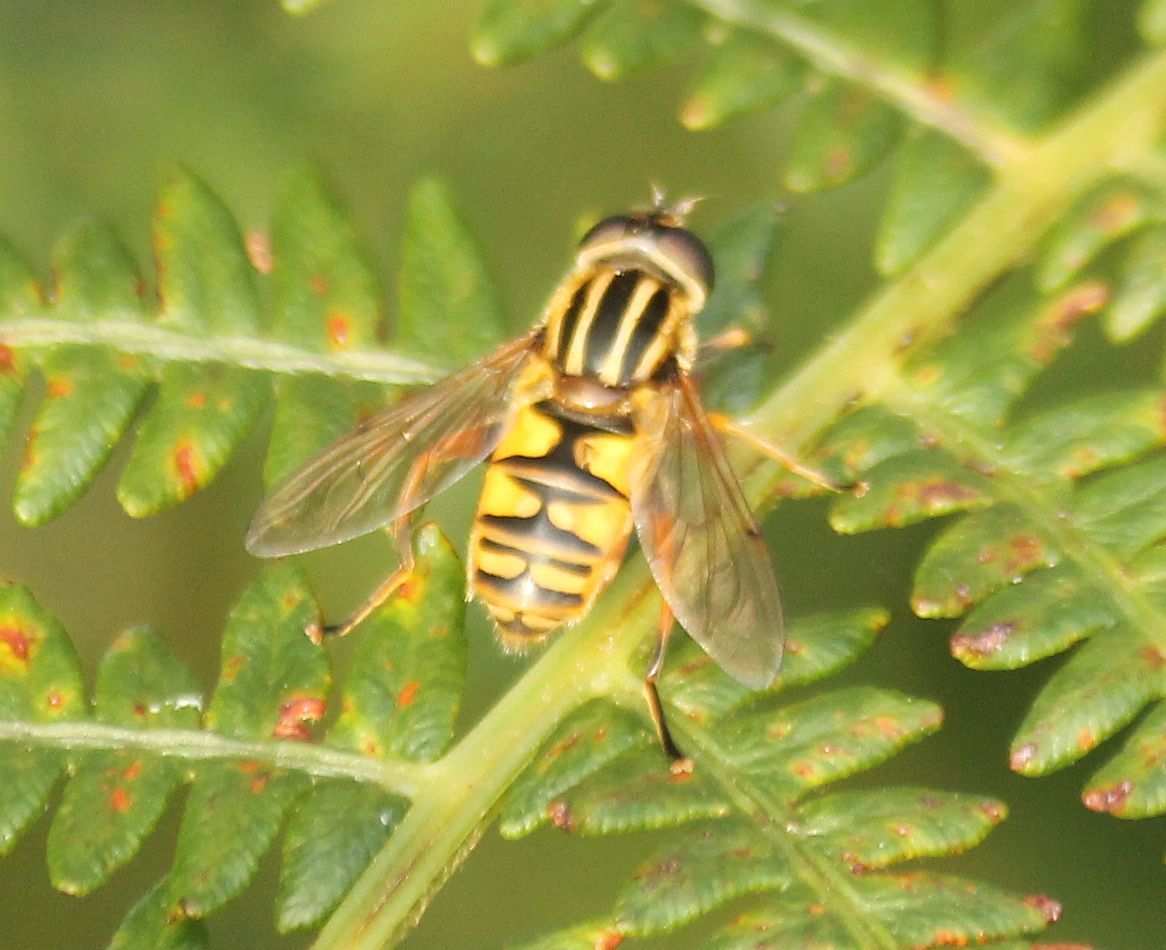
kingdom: Animalia
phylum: Arthropoda
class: Insecta
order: Diptera
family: Syrphidae
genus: Helophilus
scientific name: Helophilus pendulus
